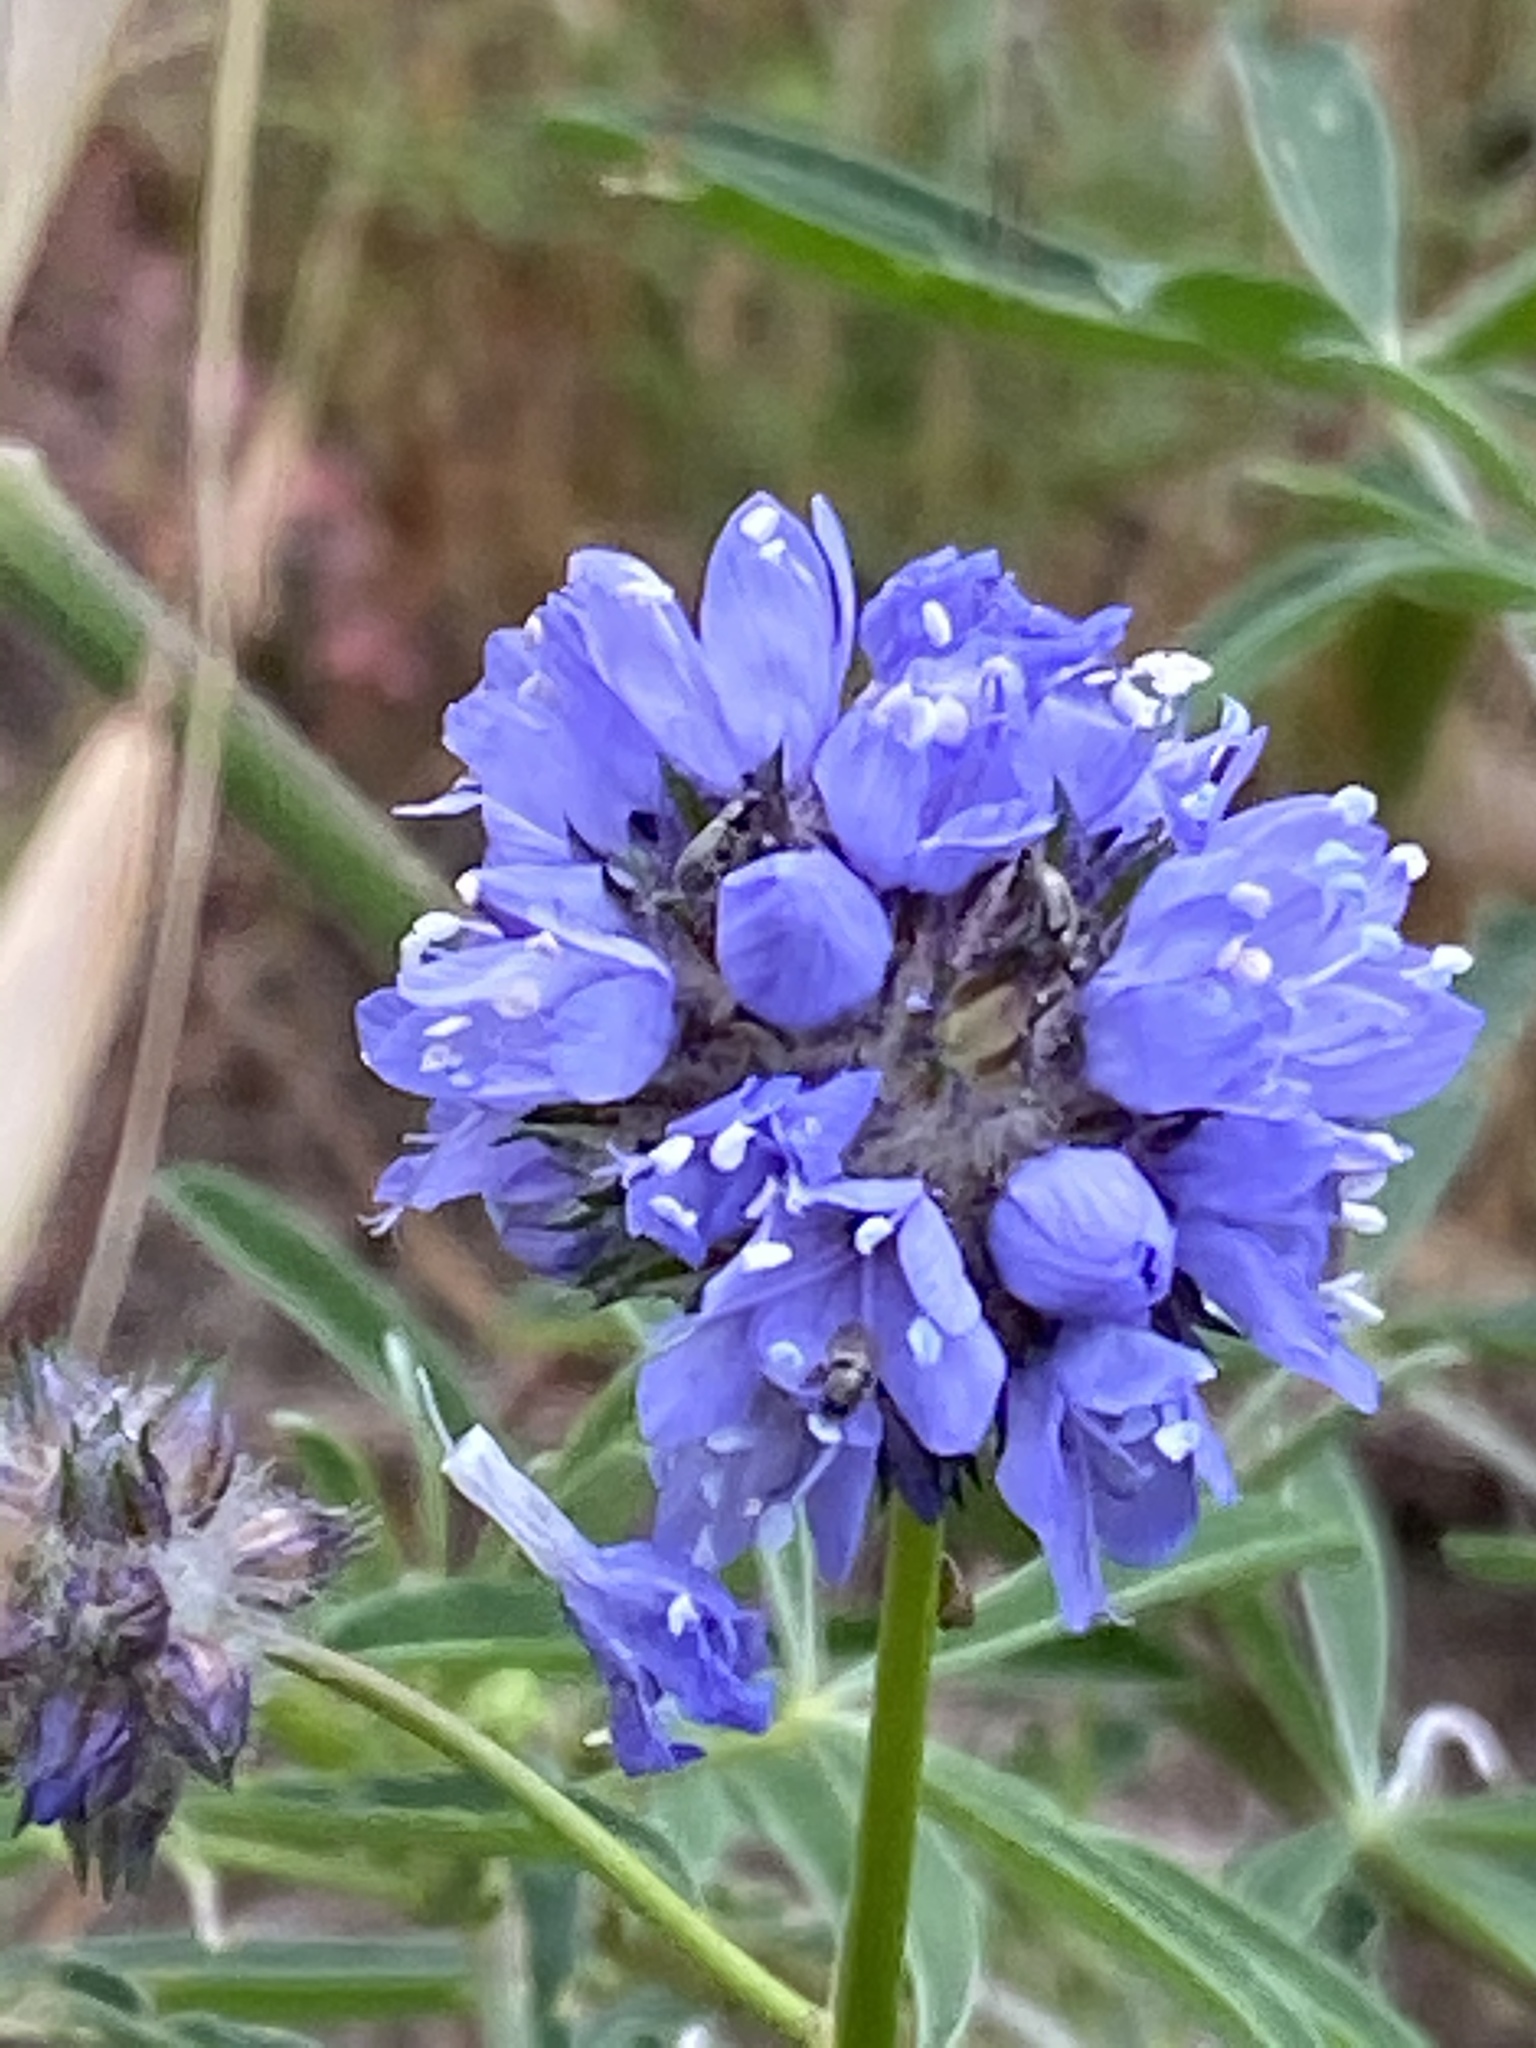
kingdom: Plantae
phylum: Tracheophyta
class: Magnoliopsida
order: Ericales
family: Polemoniaceae
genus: Gilia
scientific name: Gilia capitata
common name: Bluehead gilia
